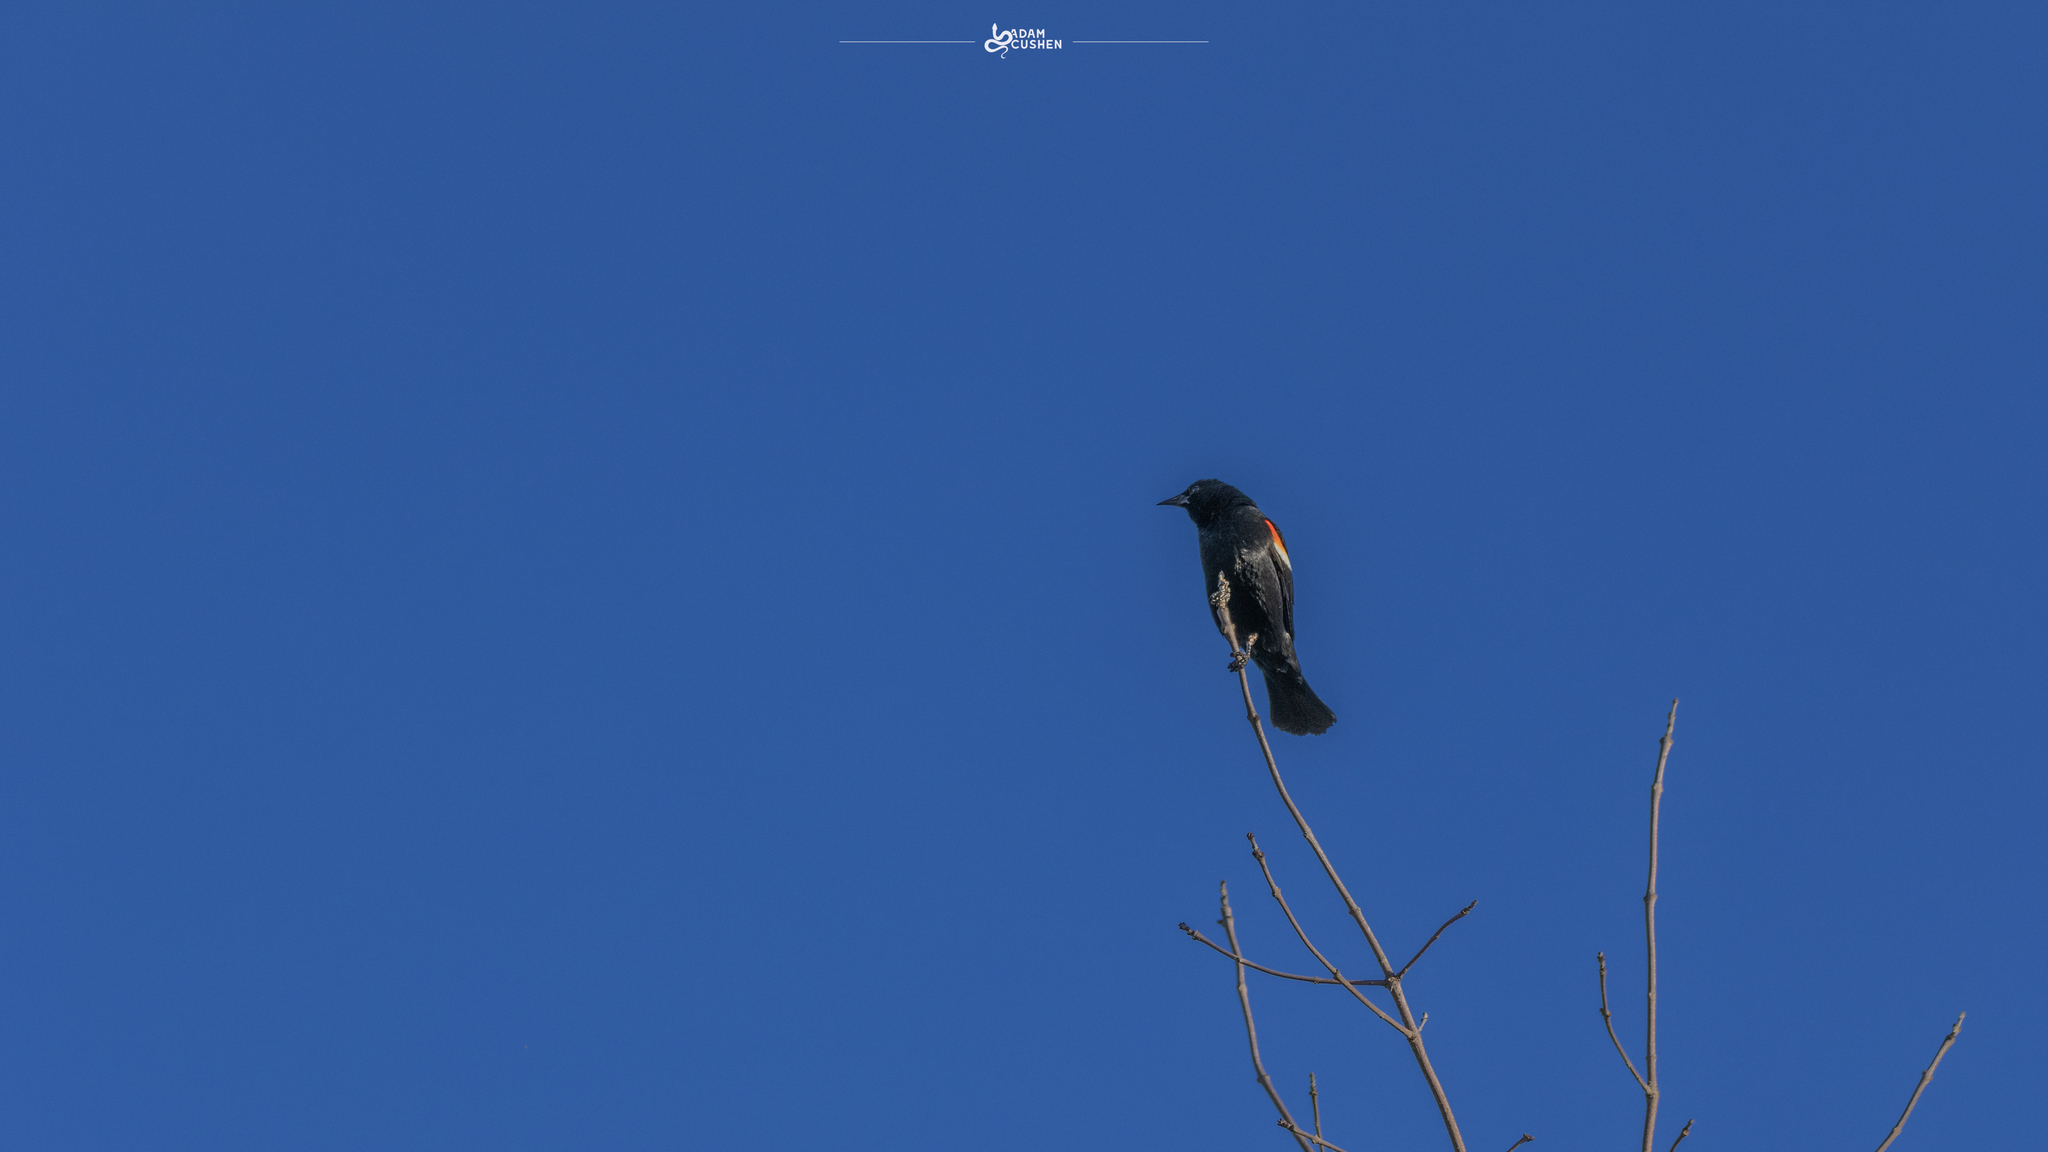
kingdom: Animalia
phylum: Chordata
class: Aves
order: Passeriformes
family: Icteridae
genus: Agelaius
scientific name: Agelaius phoeniceus
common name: Red-winged blackbird
